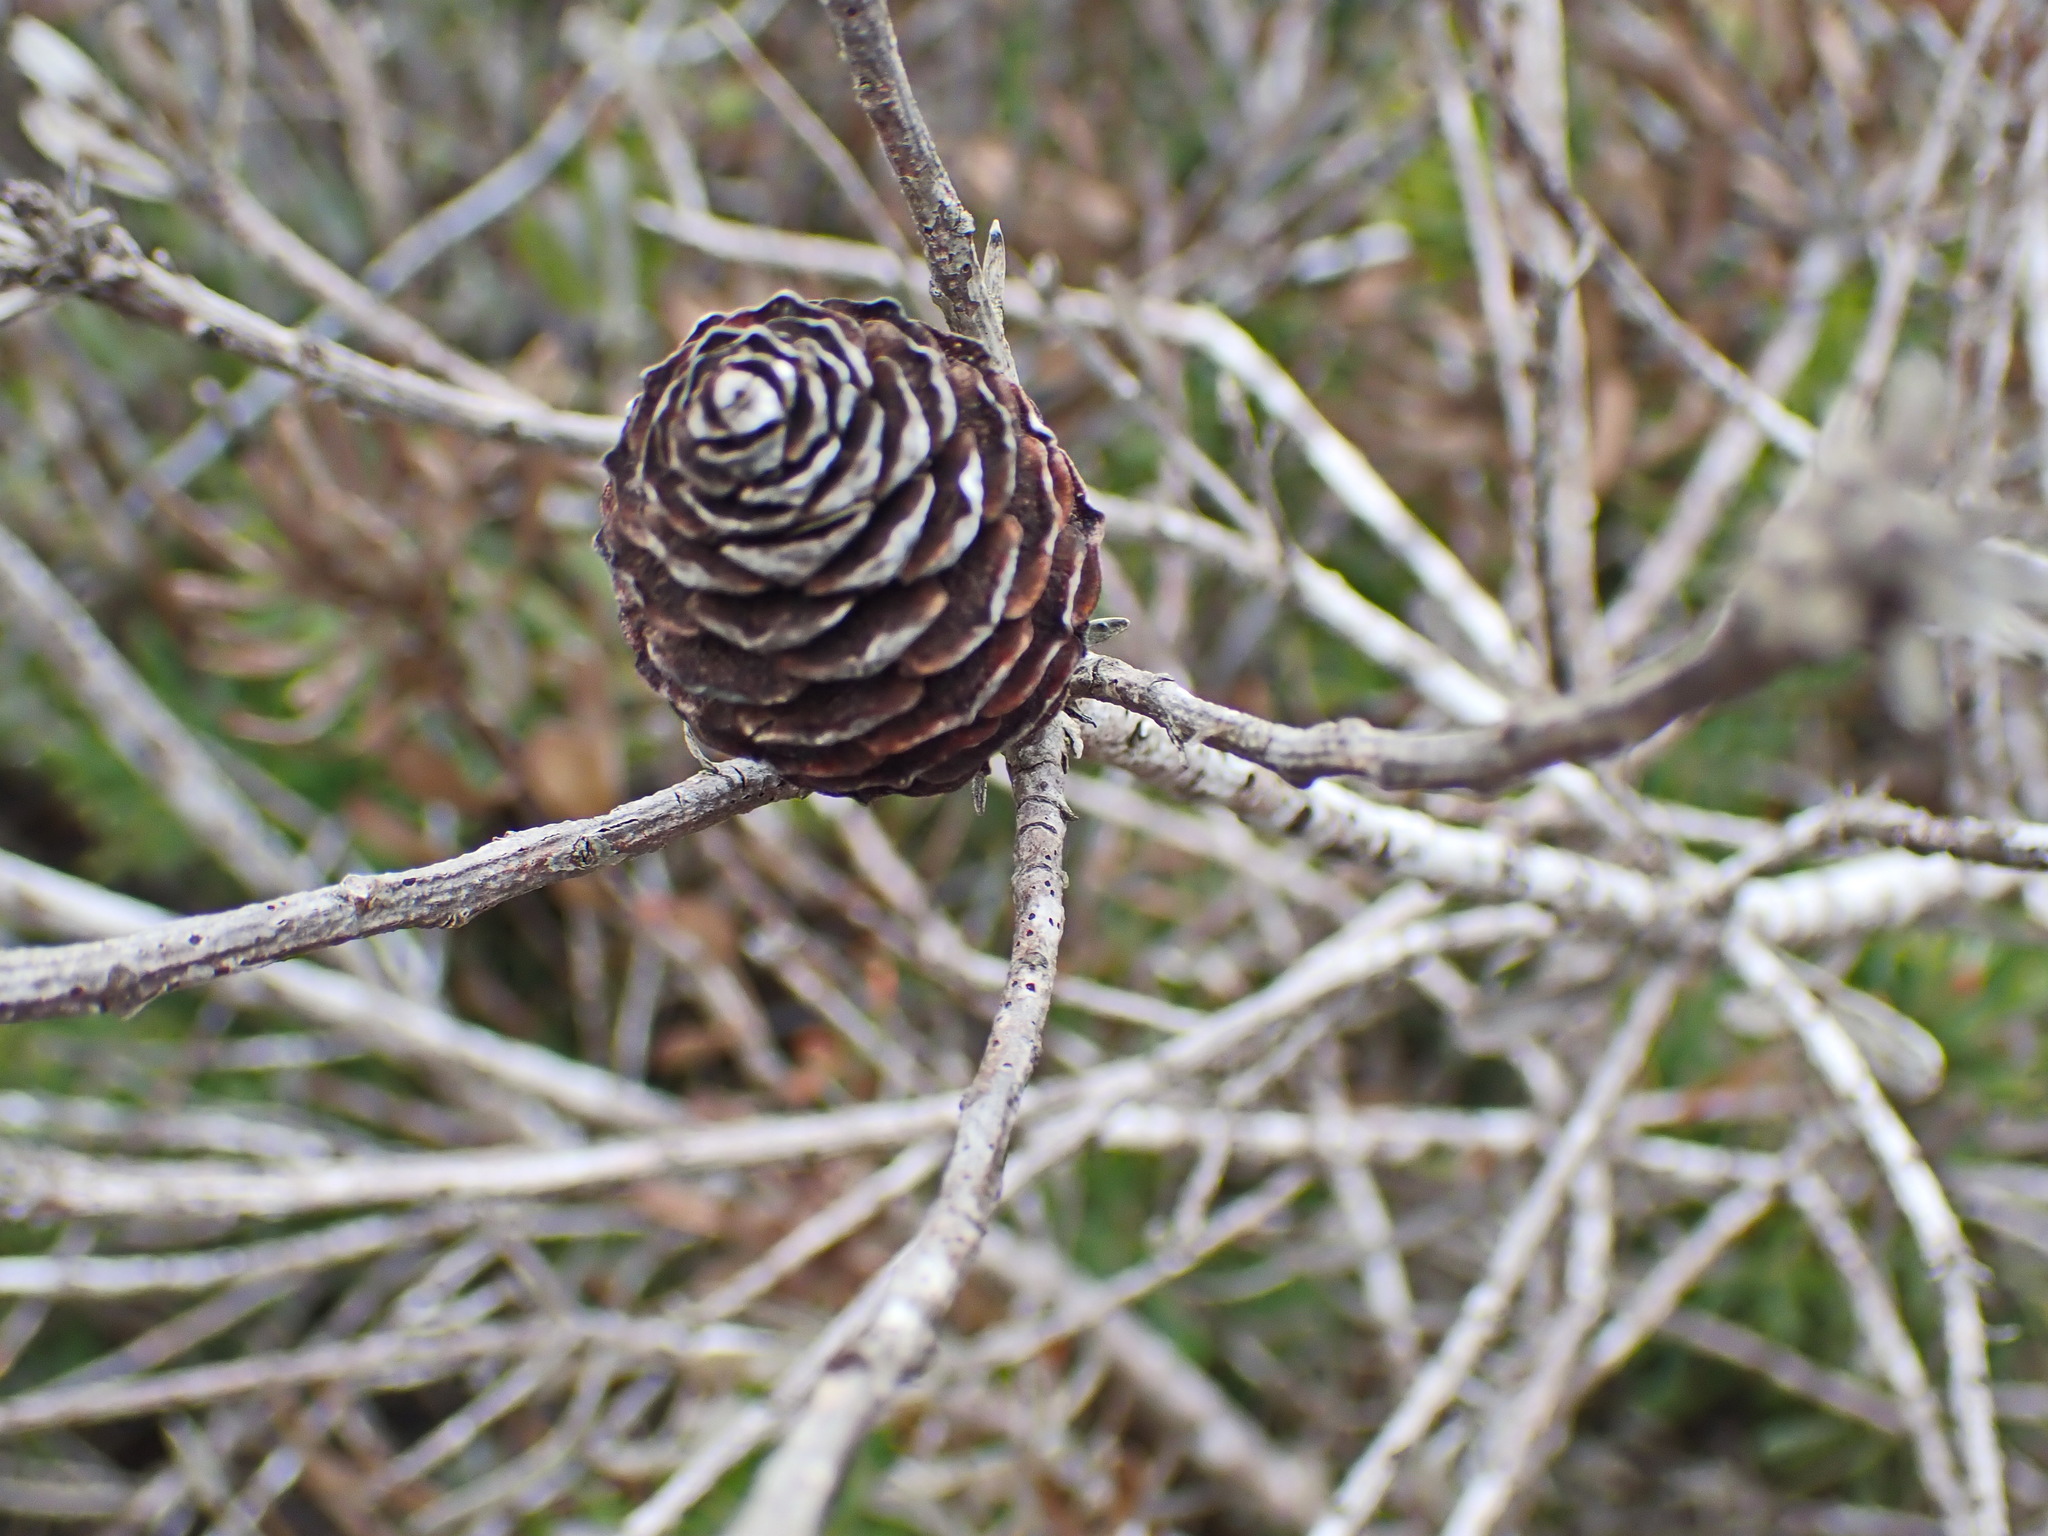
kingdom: Plantae
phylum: Tracheophyta
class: Magnoliopsida
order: Proteales
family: Proteaceae
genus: Leucadendron
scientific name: Leucadendron muirii
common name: Silver-ball conebush
